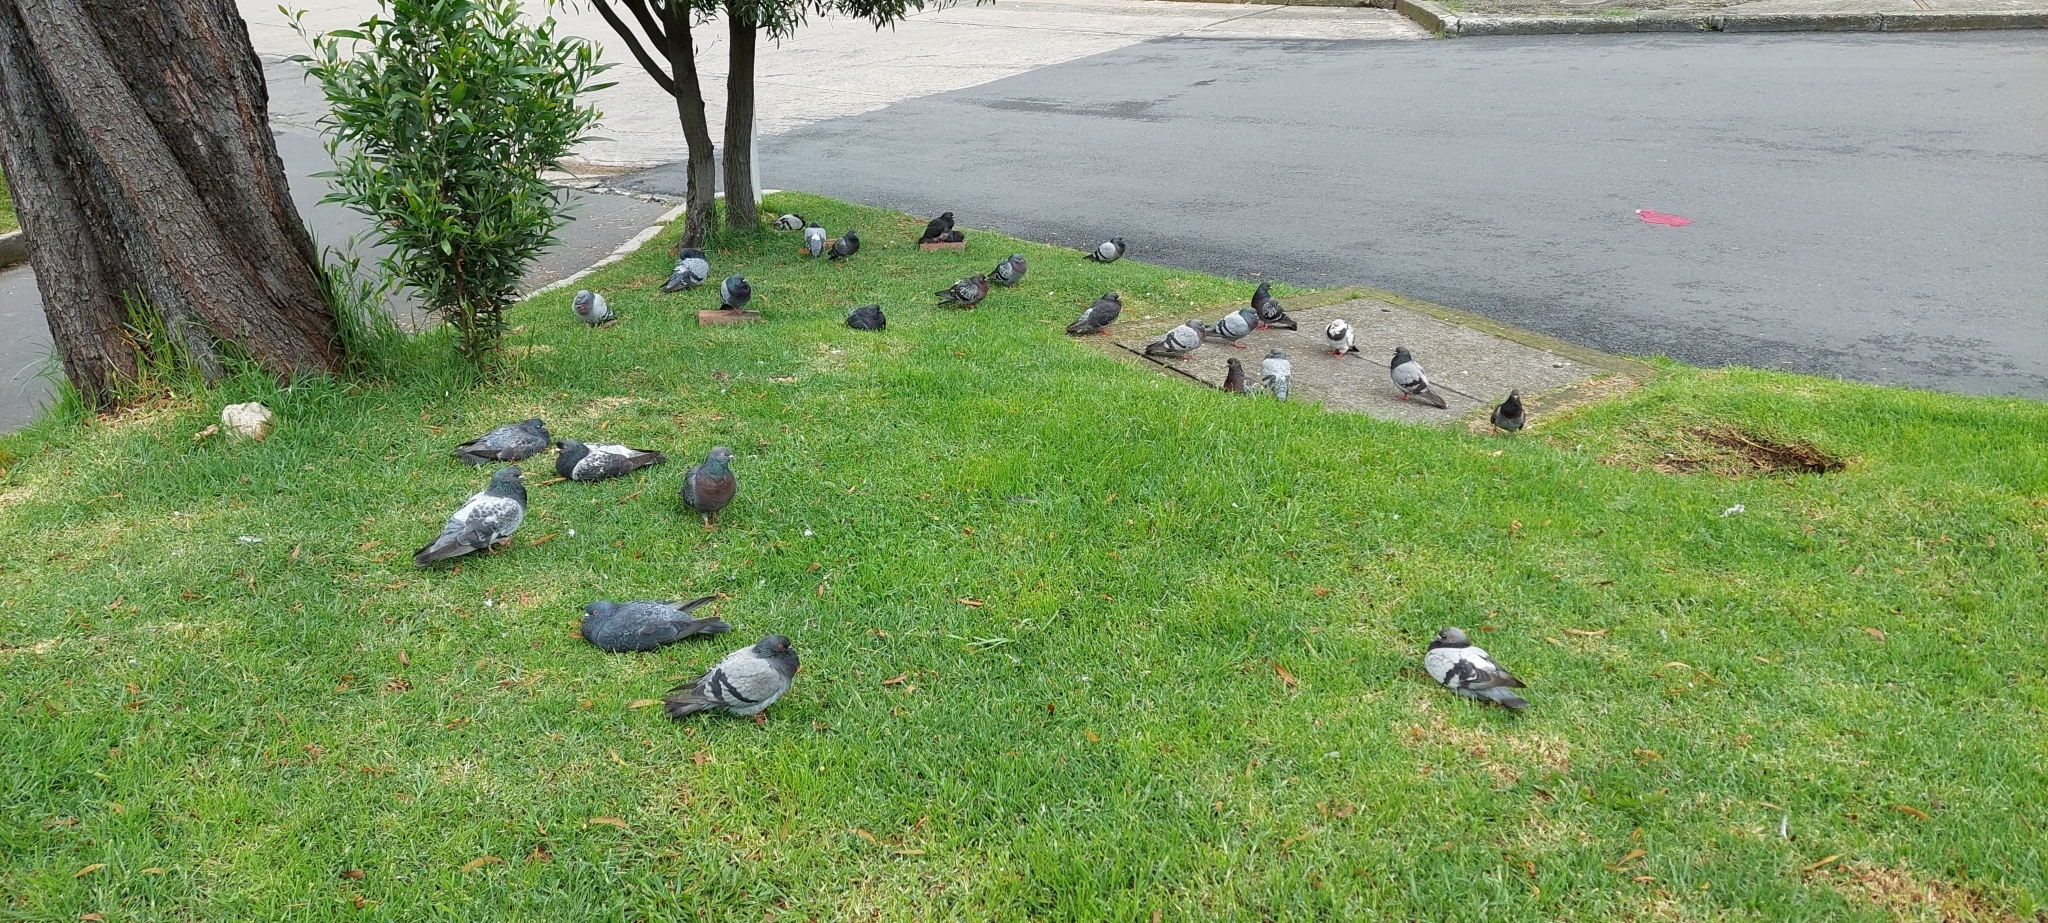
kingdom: Animalia
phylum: Chordata
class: Aves
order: Columbiformes
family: Columbidae
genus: Columba
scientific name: Columba livia
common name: Rock pigeon
